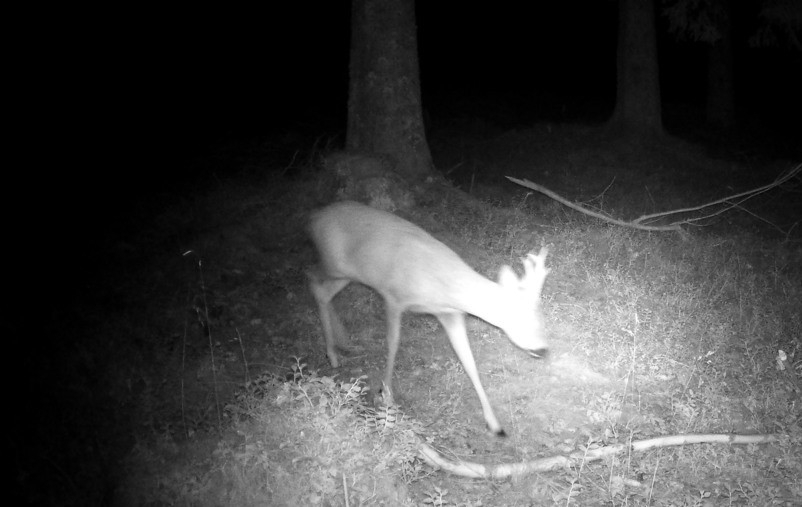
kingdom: Animalia
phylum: Chordata
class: Mammalia
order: Artiodactyla
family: Cervidae
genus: Capreolus
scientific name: Capreolus capreolus
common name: Western roe deer
